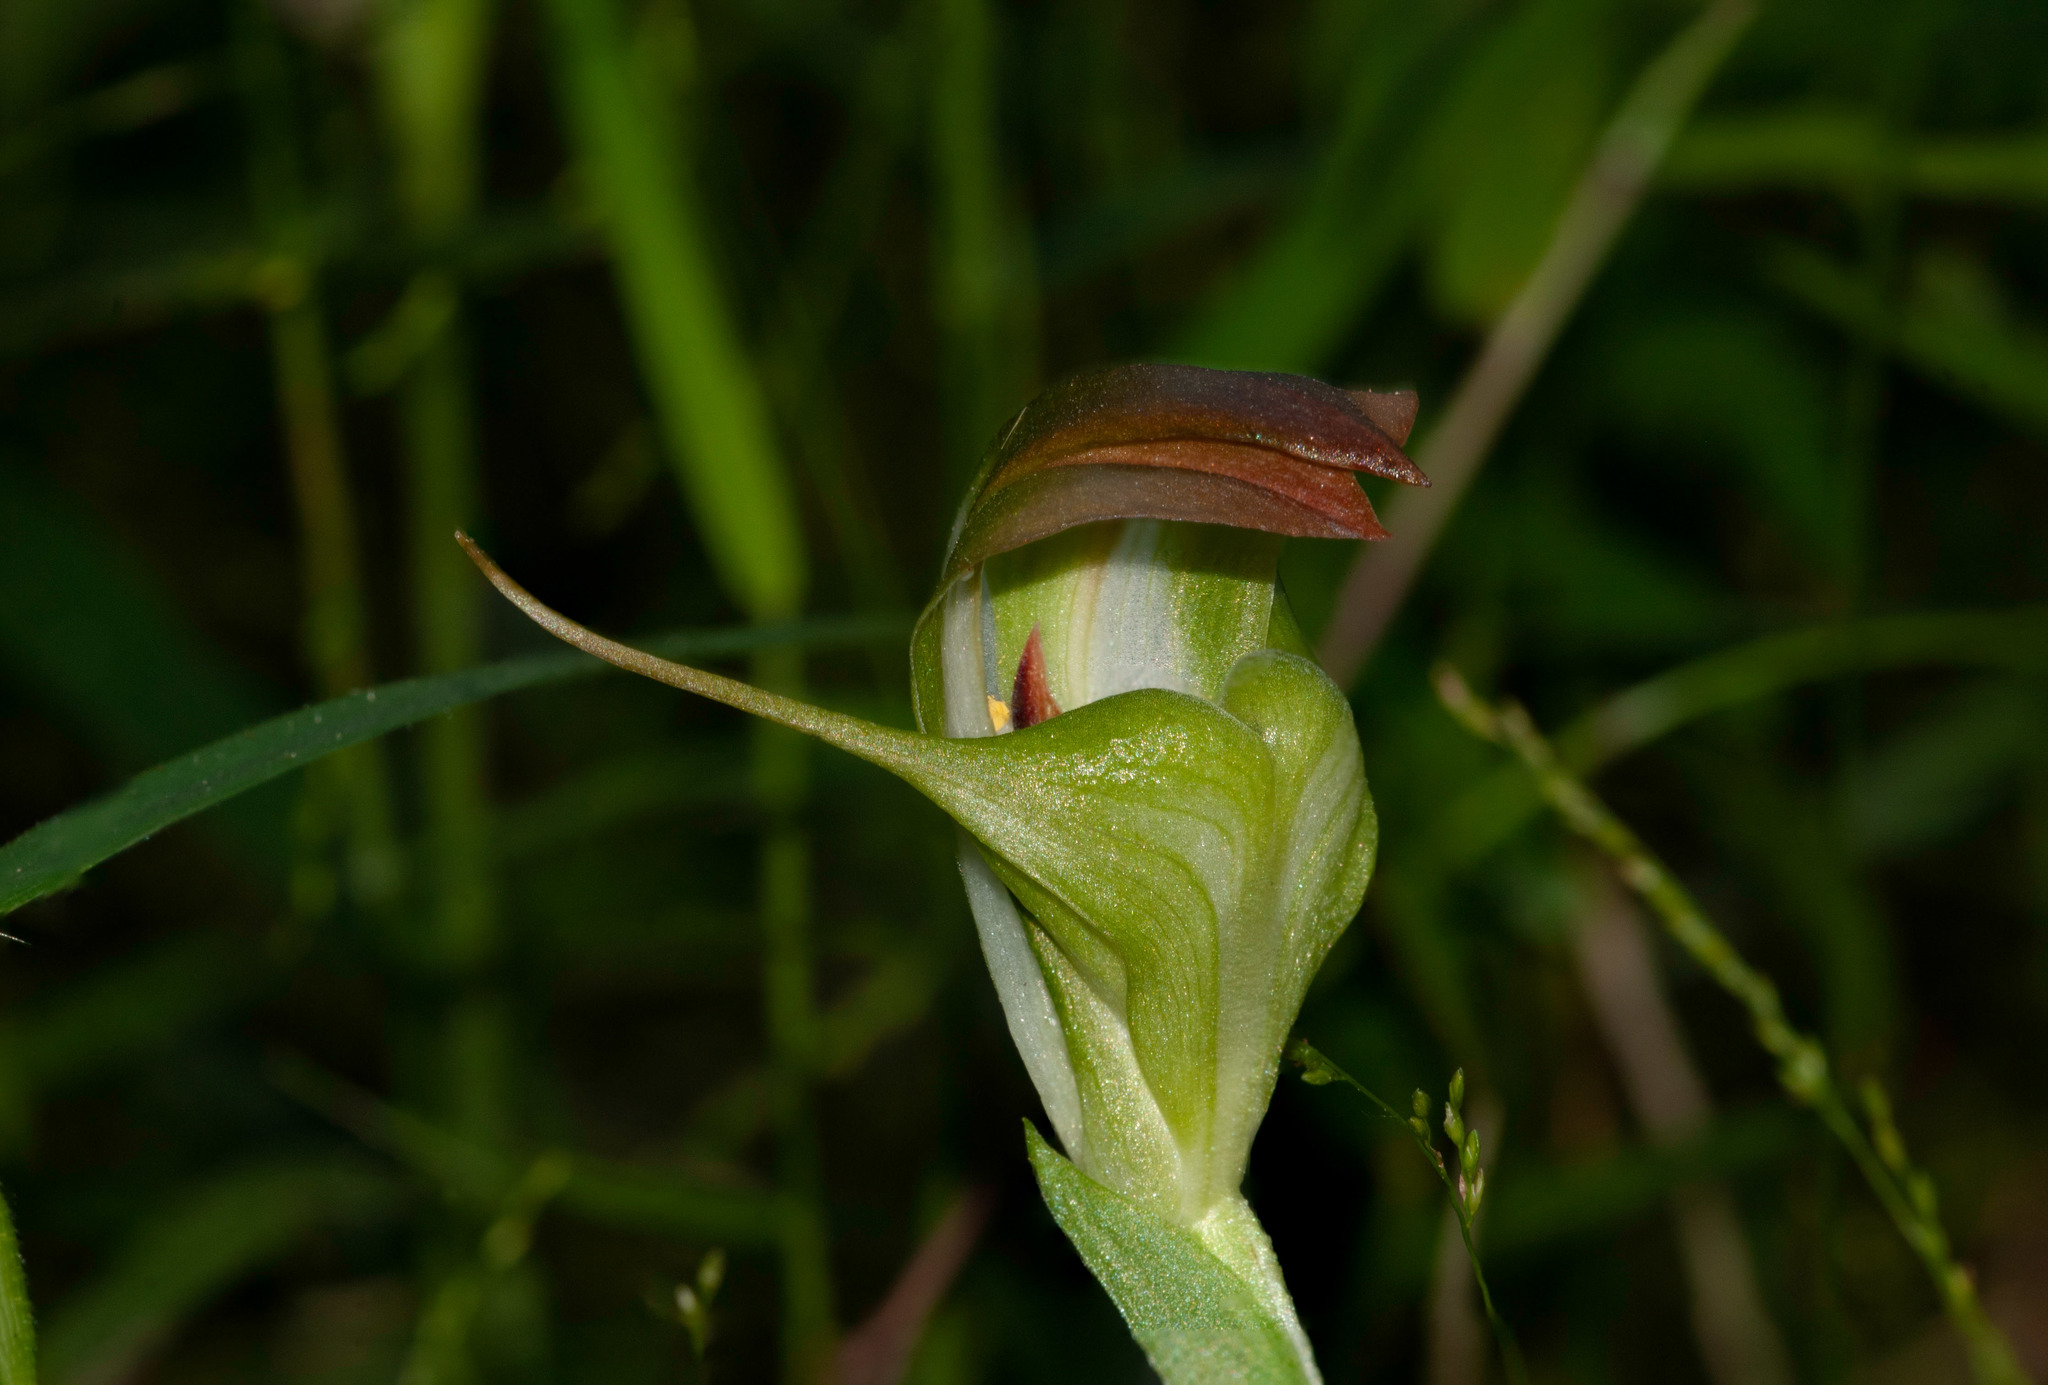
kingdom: Plantae
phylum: Tracheophyta
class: Liliopsida
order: Asparagales
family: Orchidaceae
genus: Pterostylis
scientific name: Pterostylis baptistii
